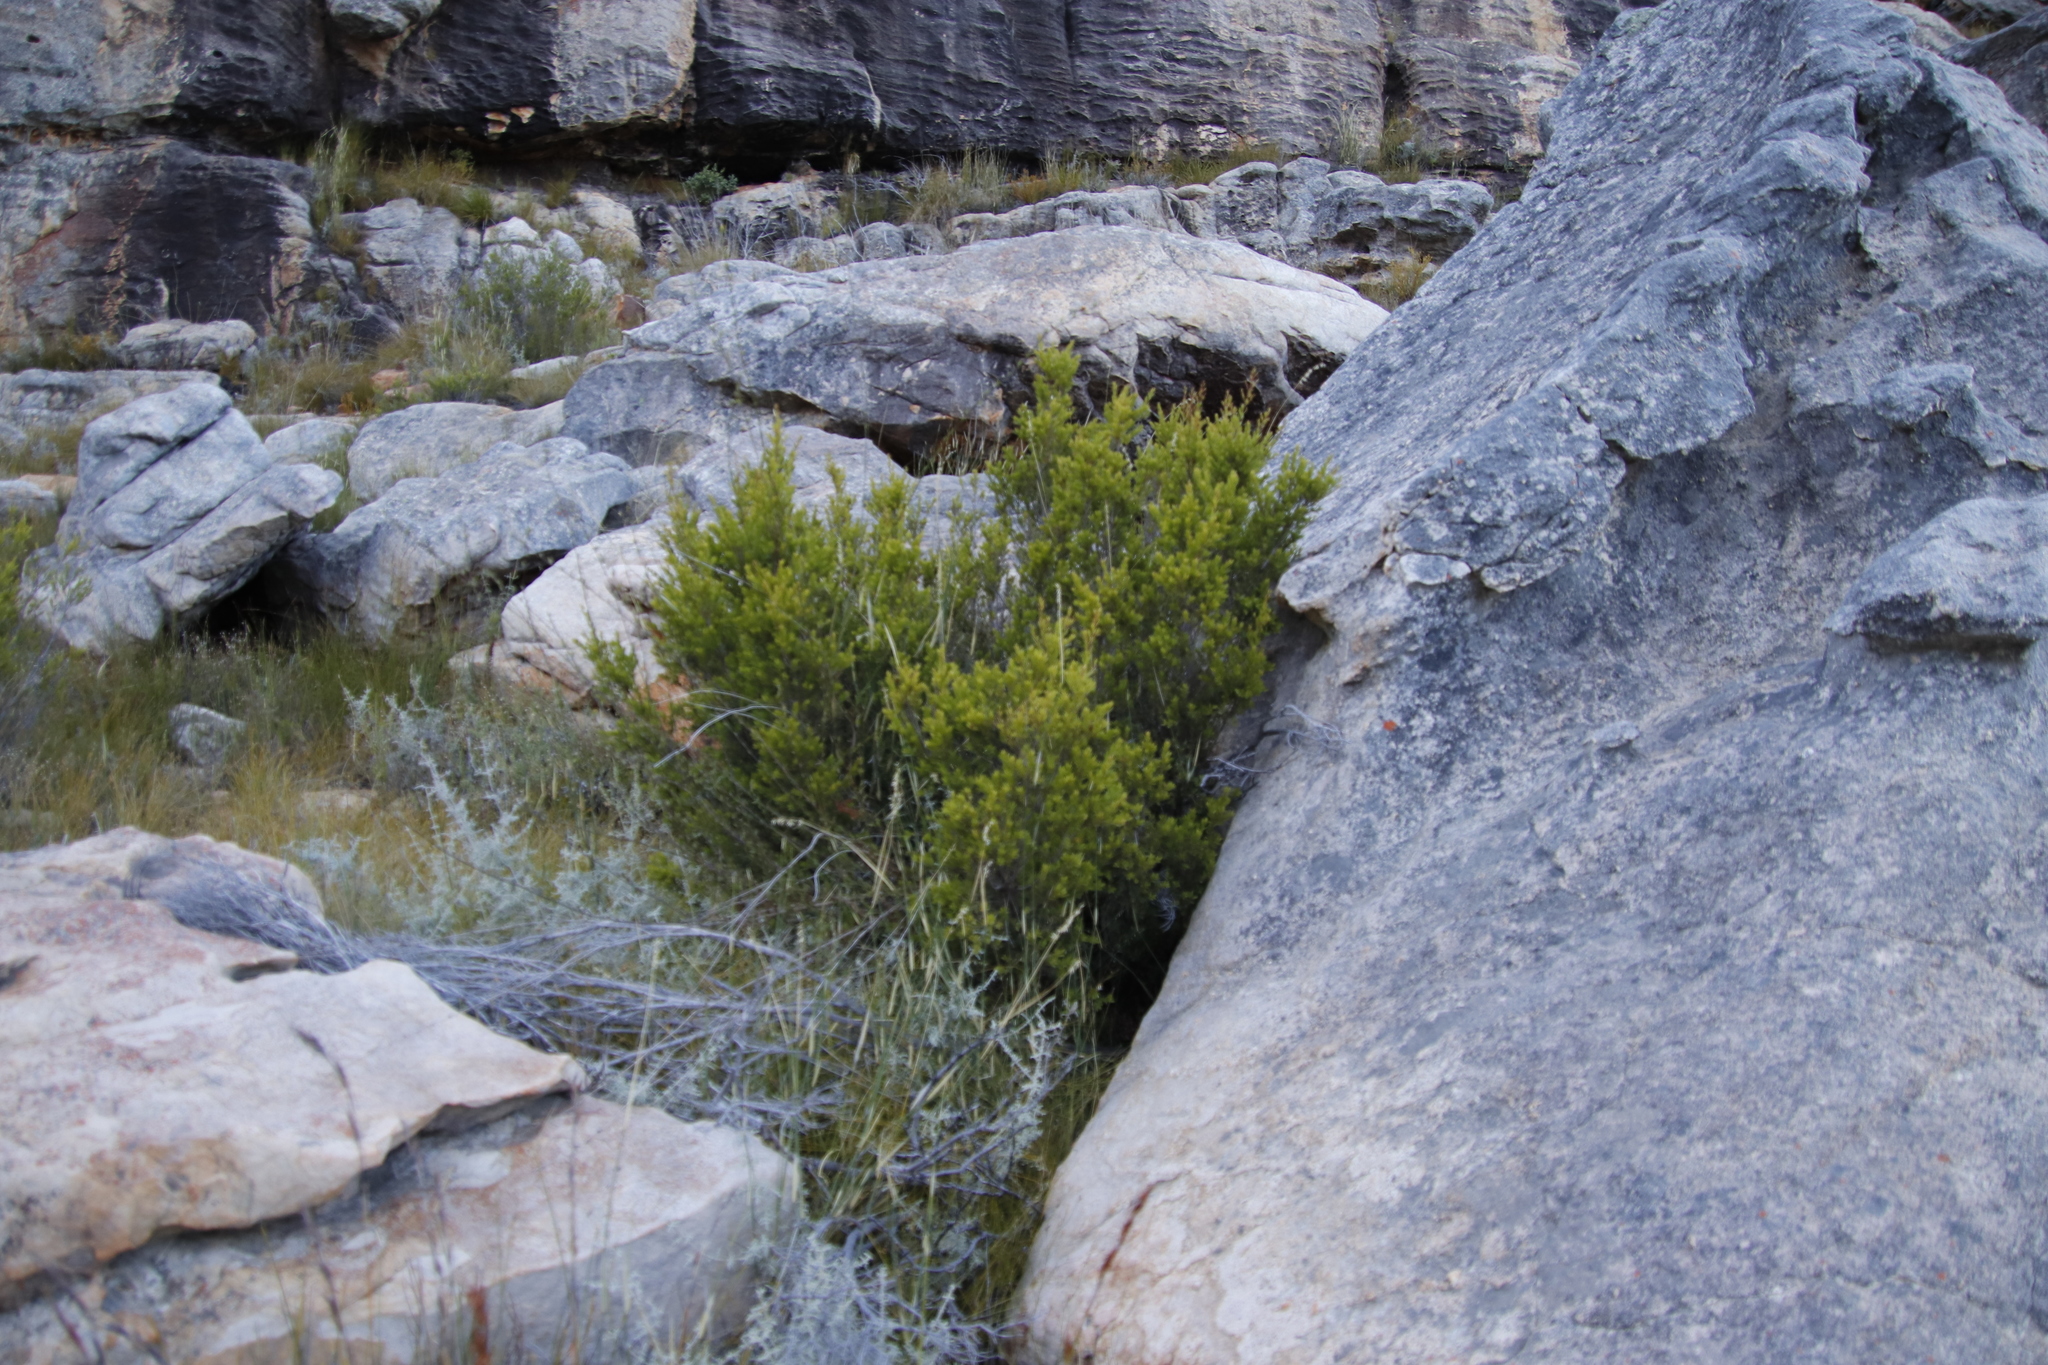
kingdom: Plantae
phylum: Tracheophyta
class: Magnoliopsida
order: Ericales
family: Ebenaceae
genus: Diospyros
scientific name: Diospyros glabra
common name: Fynbos star apple
